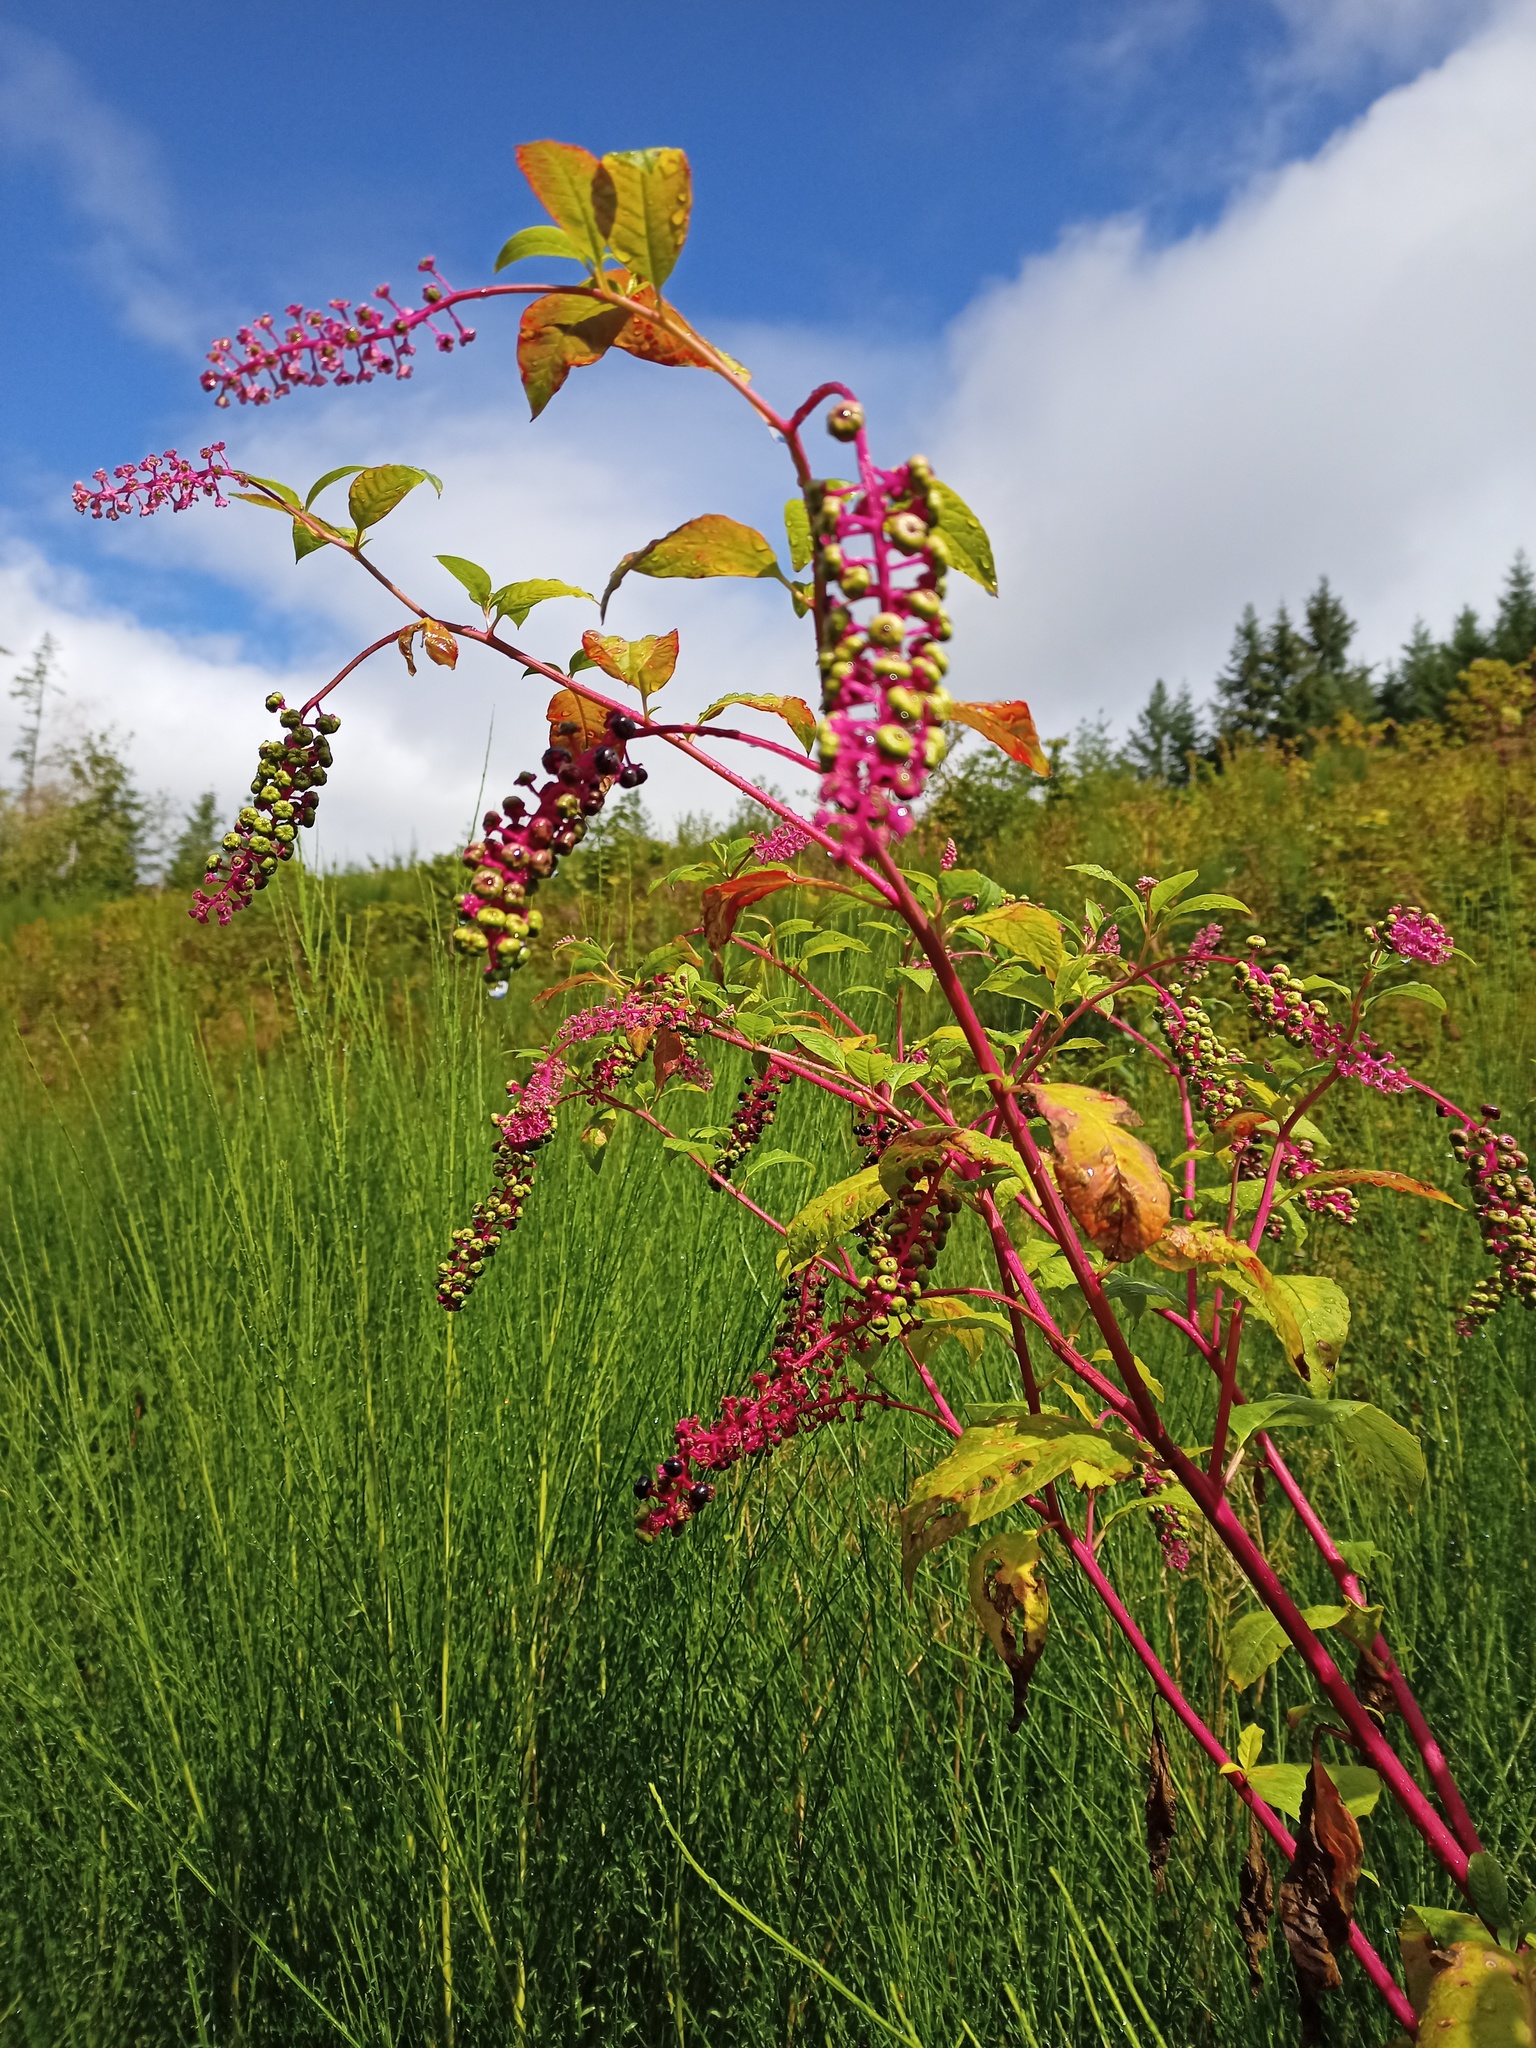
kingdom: Plantae
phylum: Tracheophyta
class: Magnoliopsida
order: Caryophyllales
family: Phytolaccaceae
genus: Phytolacca
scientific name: Phytolacca americana
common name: American pokeweed
